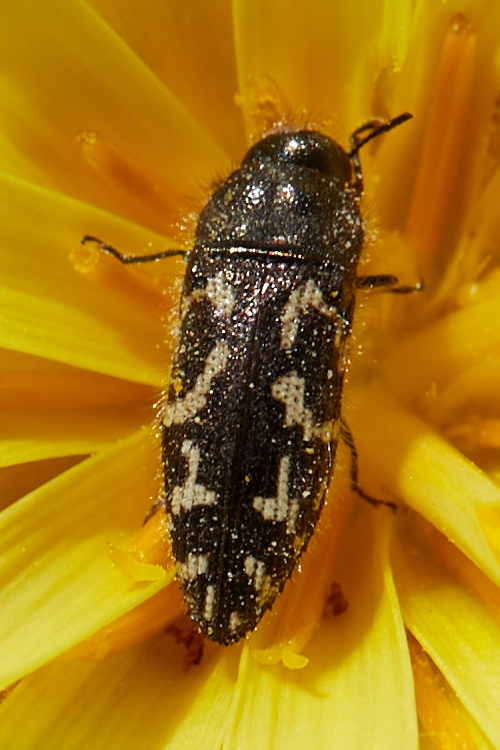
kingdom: Animalia
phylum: Arthropoda
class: Insecta
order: Coleoptera
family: Buprestidae
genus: Acmaeodera
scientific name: Acmaeodera retifera
